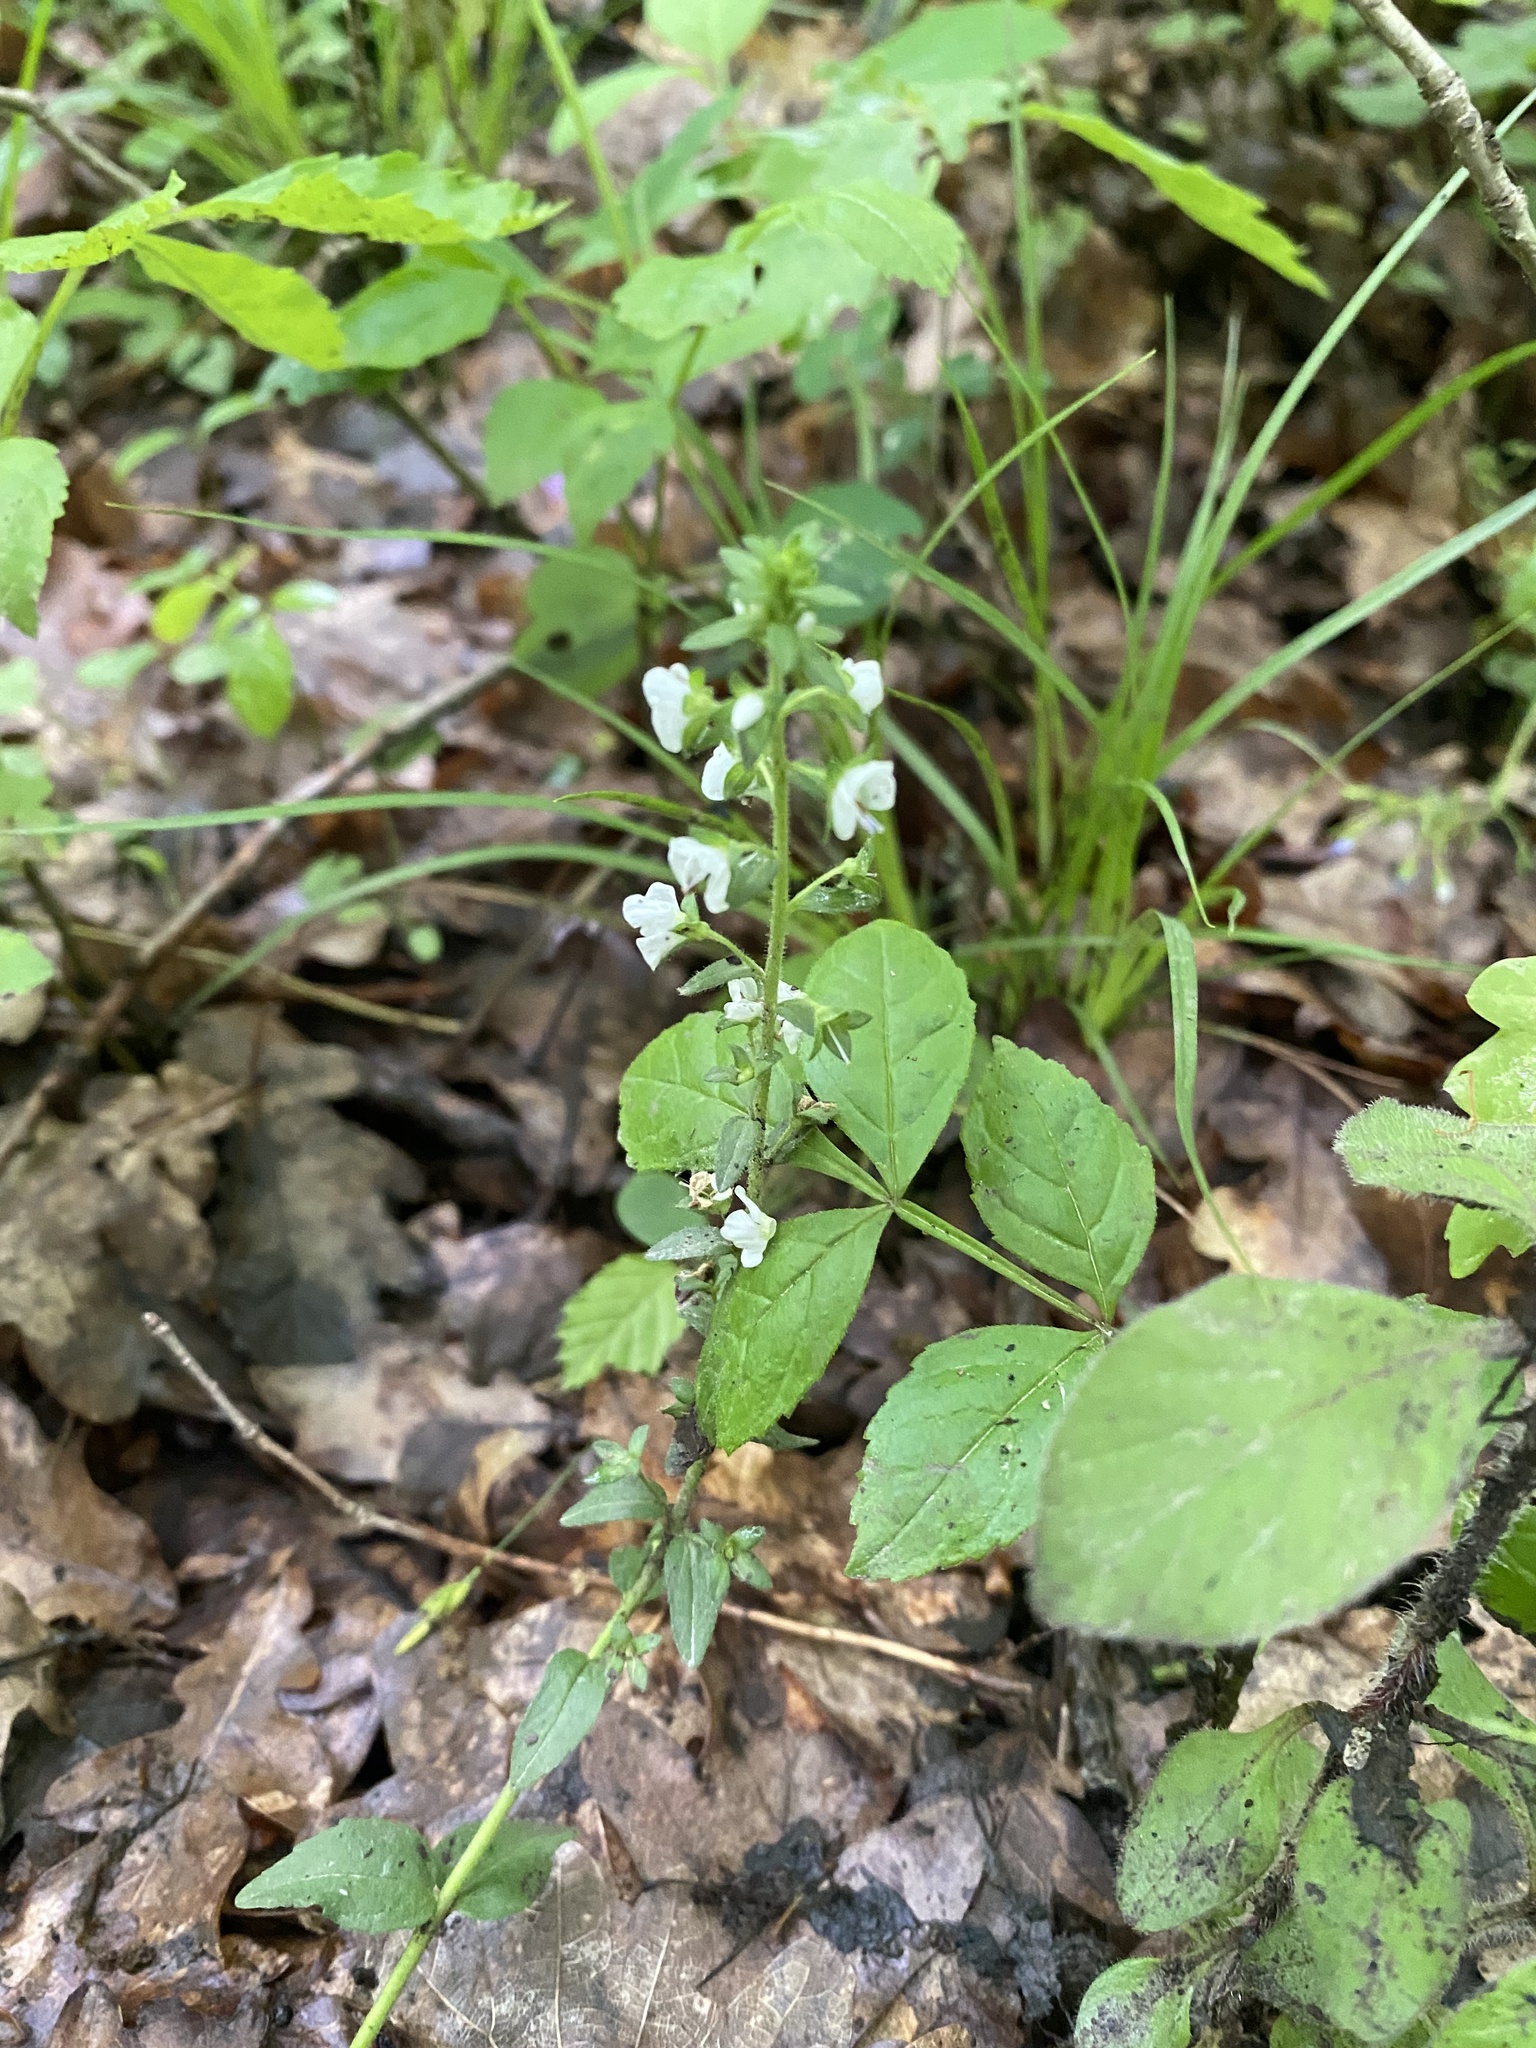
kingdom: Plantae
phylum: Tracheophyta
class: Magnoliopsida
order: Lamiales
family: Plantaginaceae
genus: Veronica
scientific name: Veronica serpyllifolia
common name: Thyme-leaved speedwell
